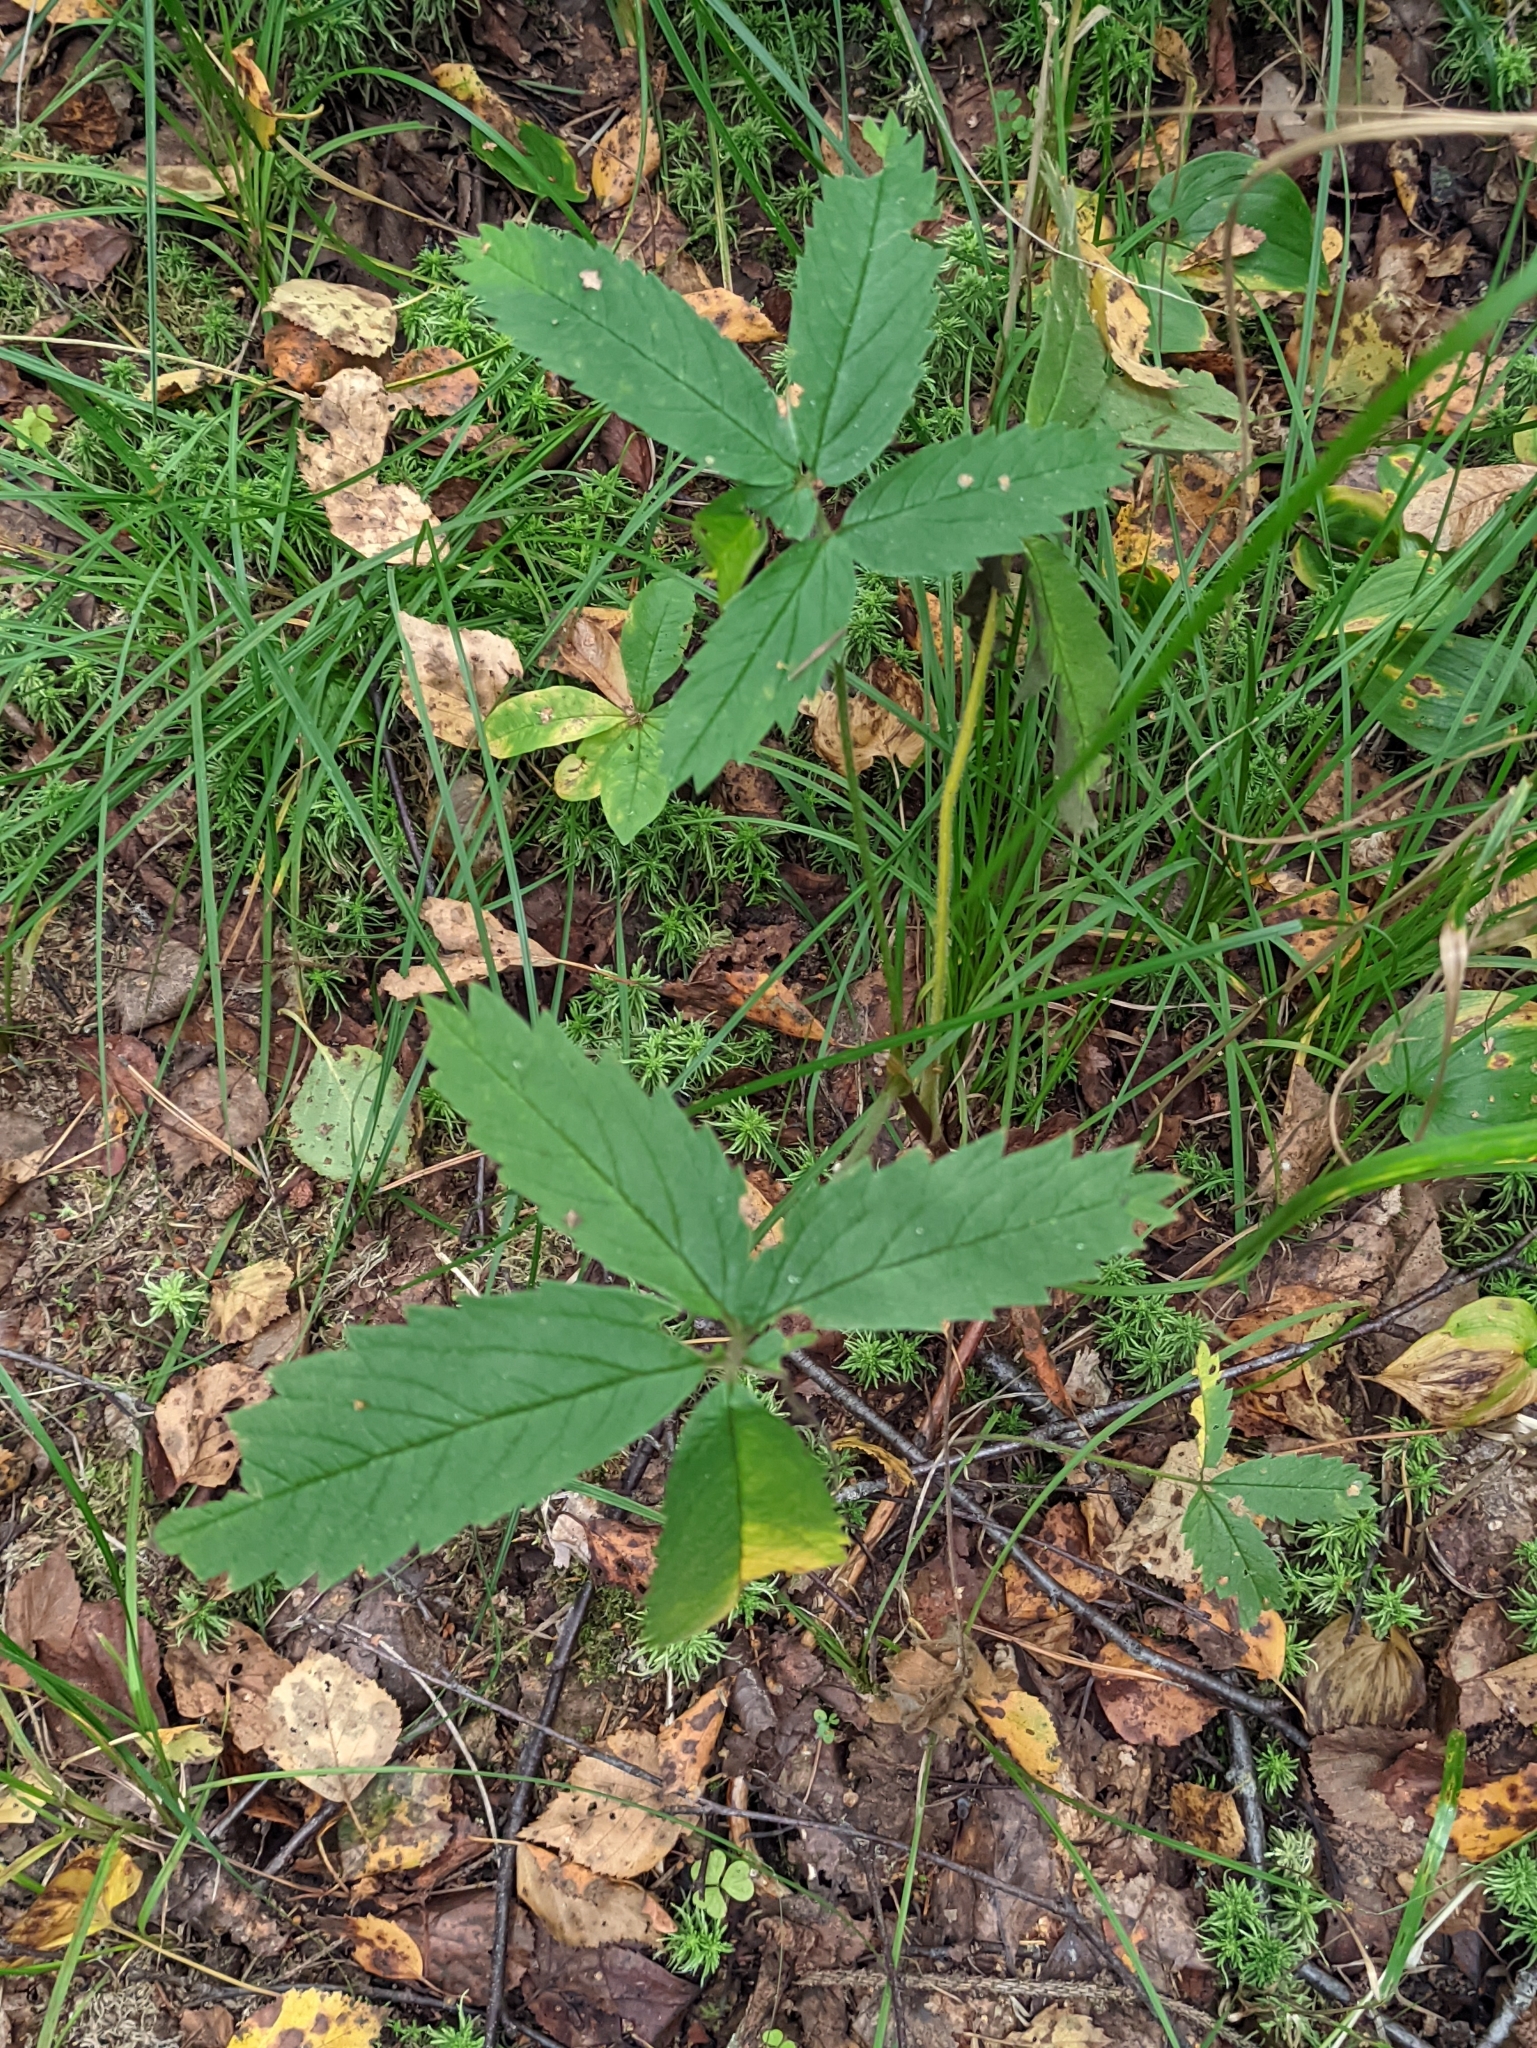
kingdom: Plantae
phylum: Tracheophyta
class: Magnoliopsida
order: Rosales
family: Rosaceae
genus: Comarum
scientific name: Comarum palustre
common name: Marsh cinquefoil
